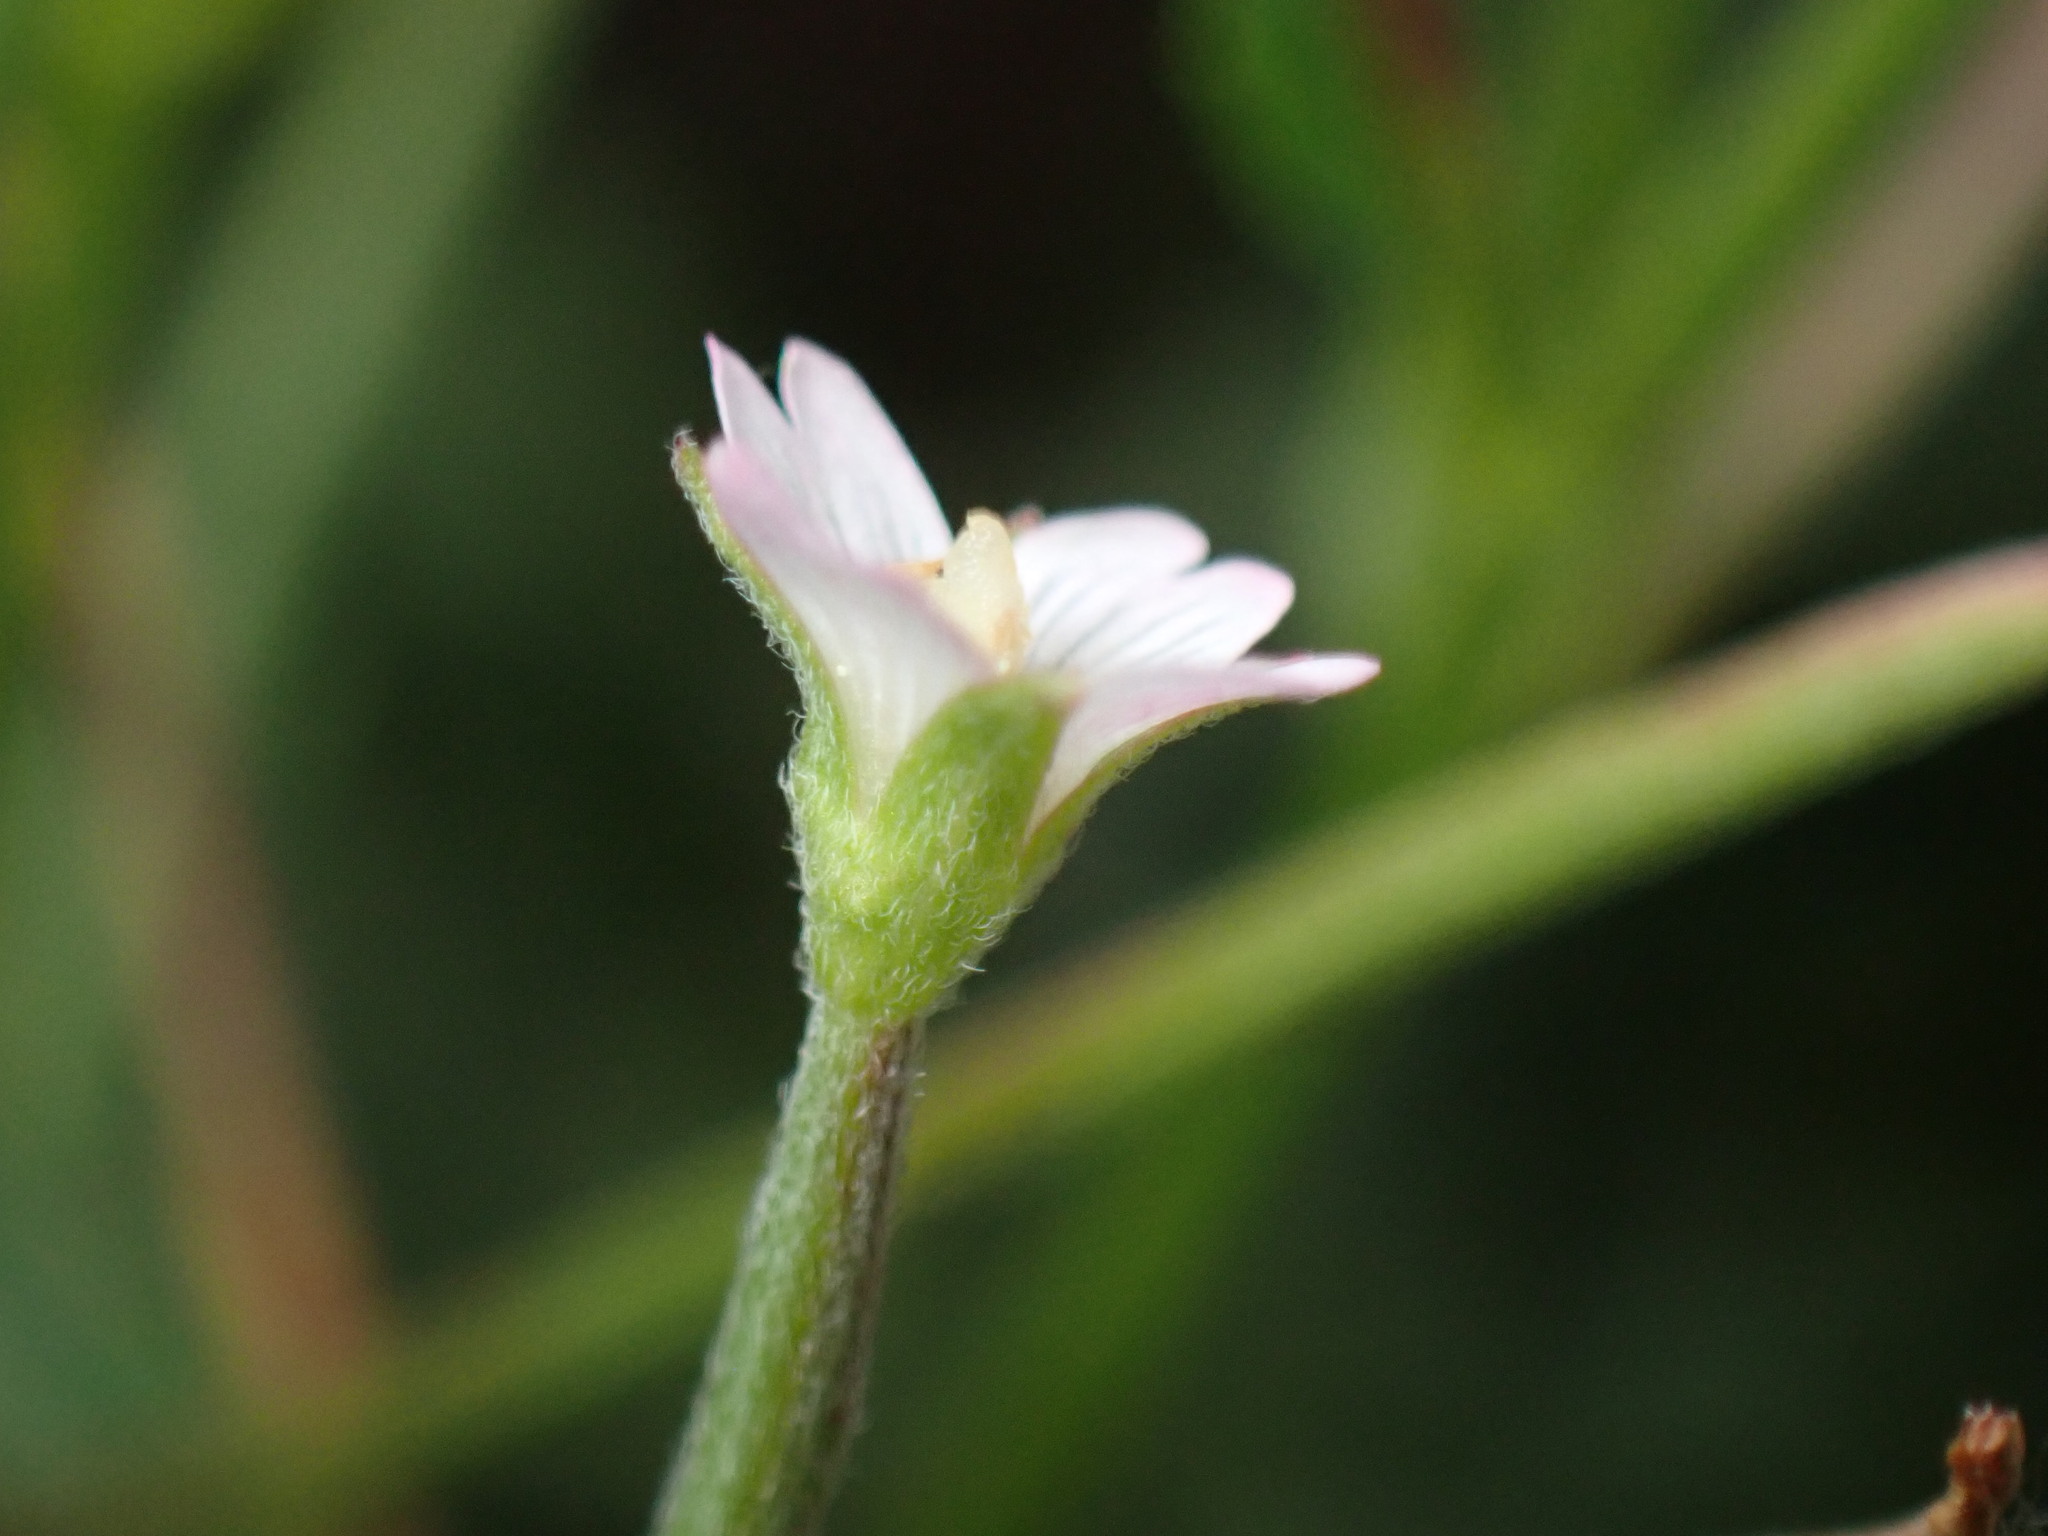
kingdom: Plantae
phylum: Tracheophyta
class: Magnoliopsida
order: Myrtales
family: Onagraceae
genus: Epilobium
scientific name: Epilobium ciliatum
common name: American willowherb
